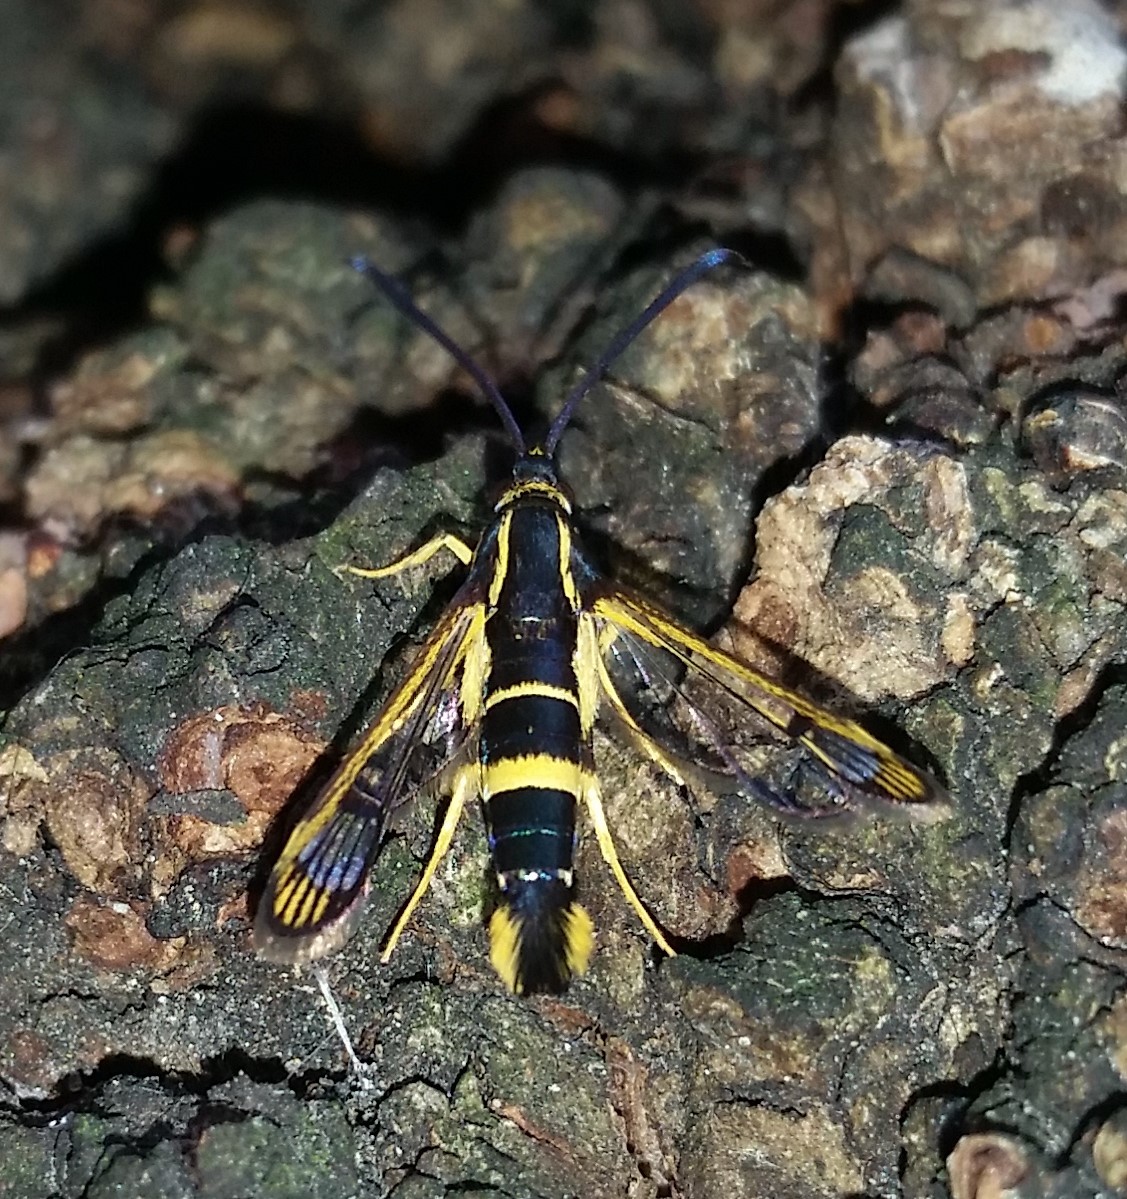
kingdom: Animalia
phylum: Arthropoda
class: Insecta
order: Lepidoptera
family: Sesiidae
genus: Synanthedon
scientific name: Synanthedon scitula
